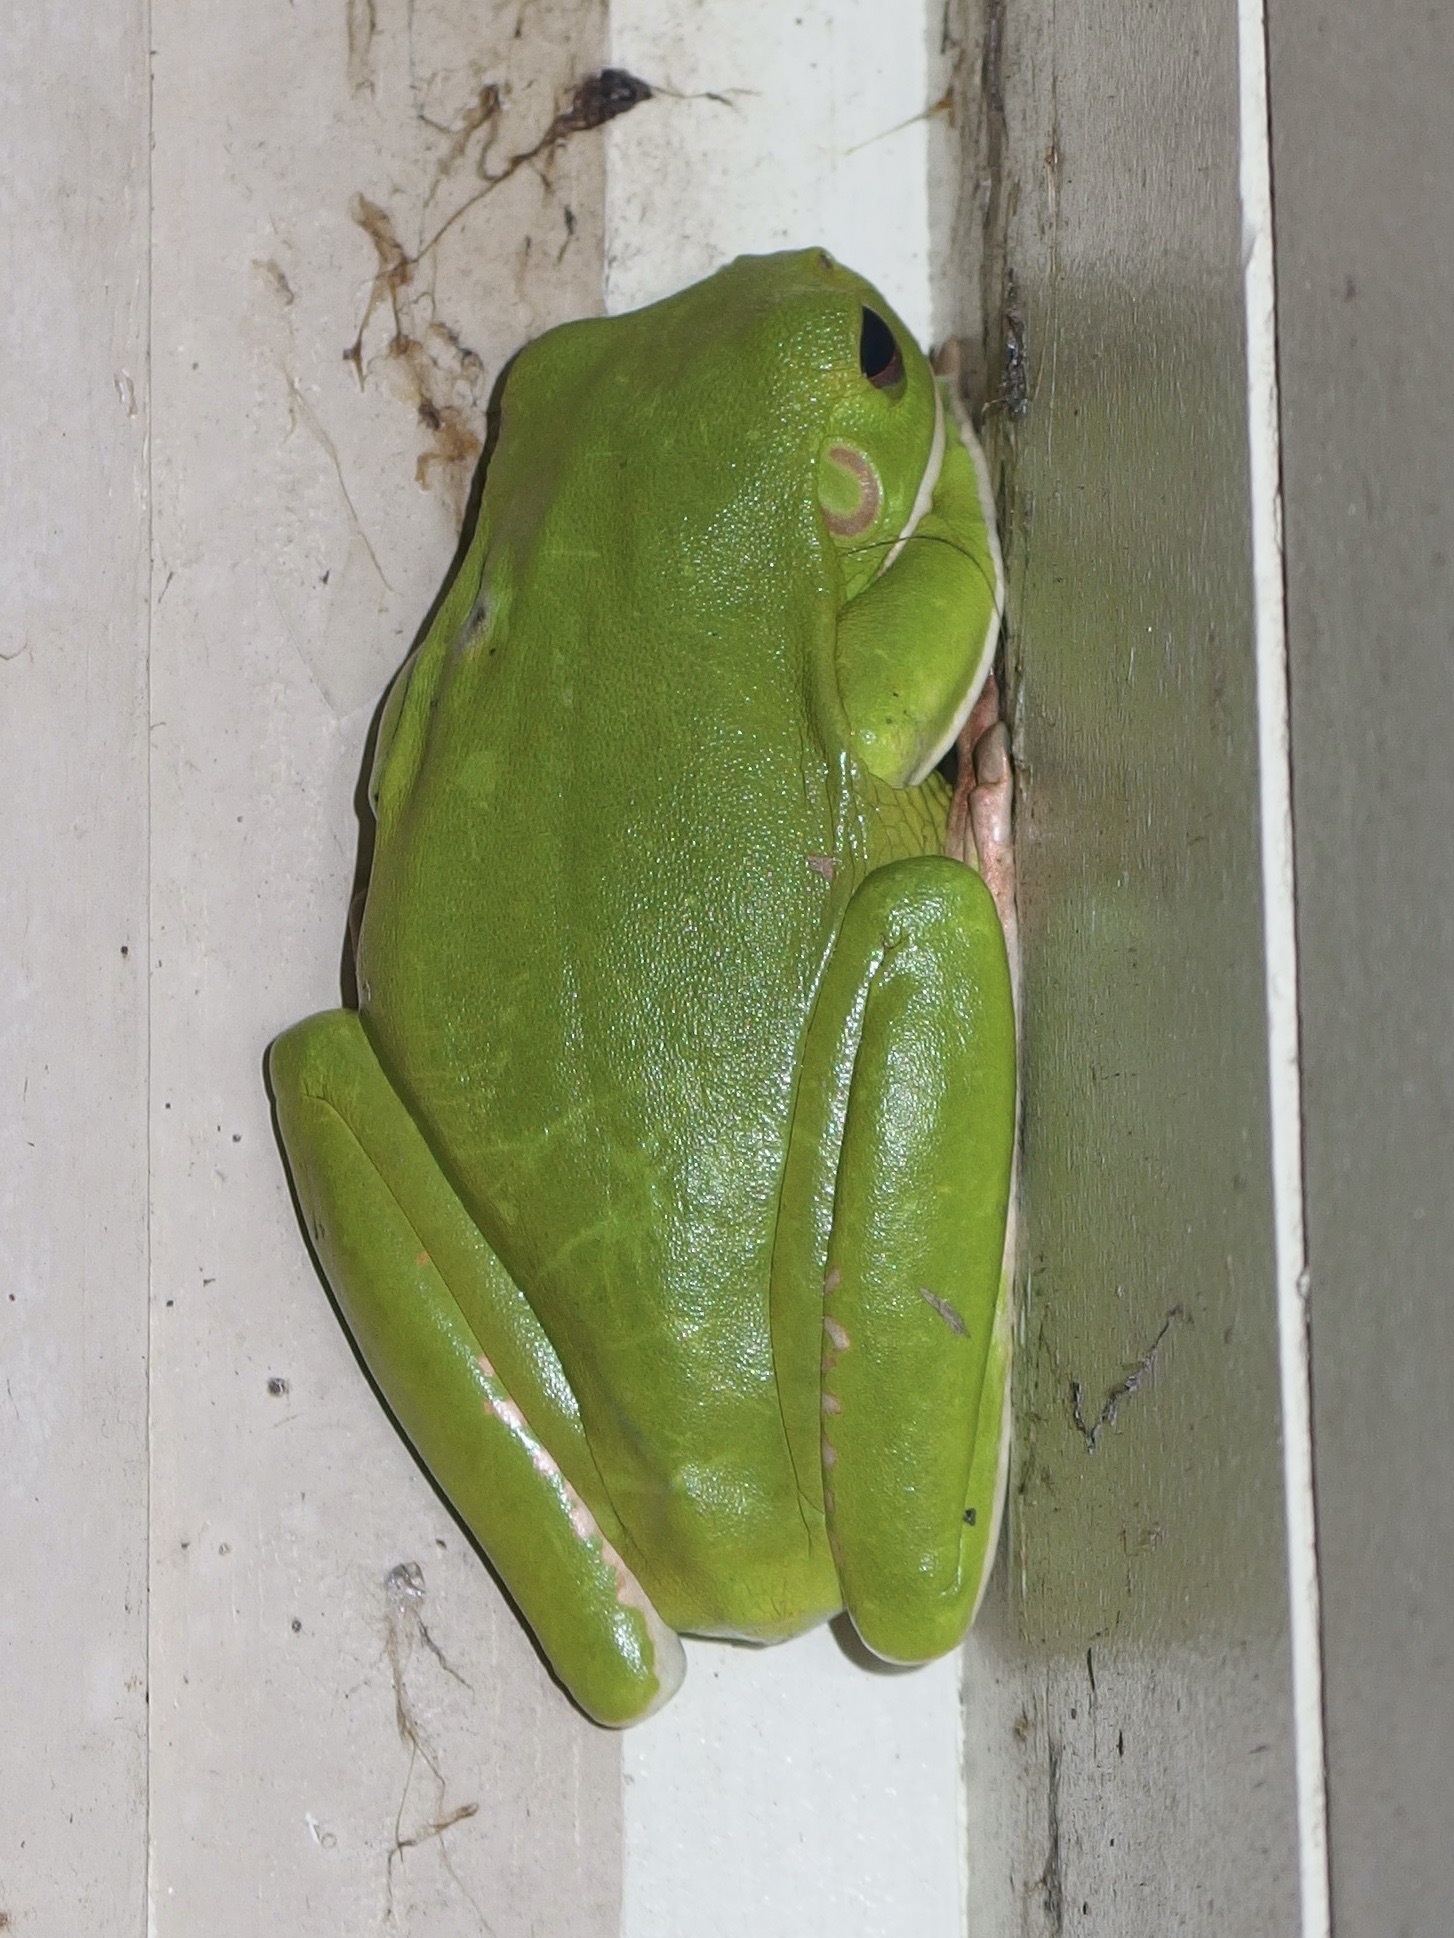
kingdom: Animalia
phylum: Chordata
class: Amphibia
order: Anura
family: Pelodryadidae
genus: Nyctimystes
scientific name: Nyctimystes infrafrenatus
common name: Australian giant treefrog
